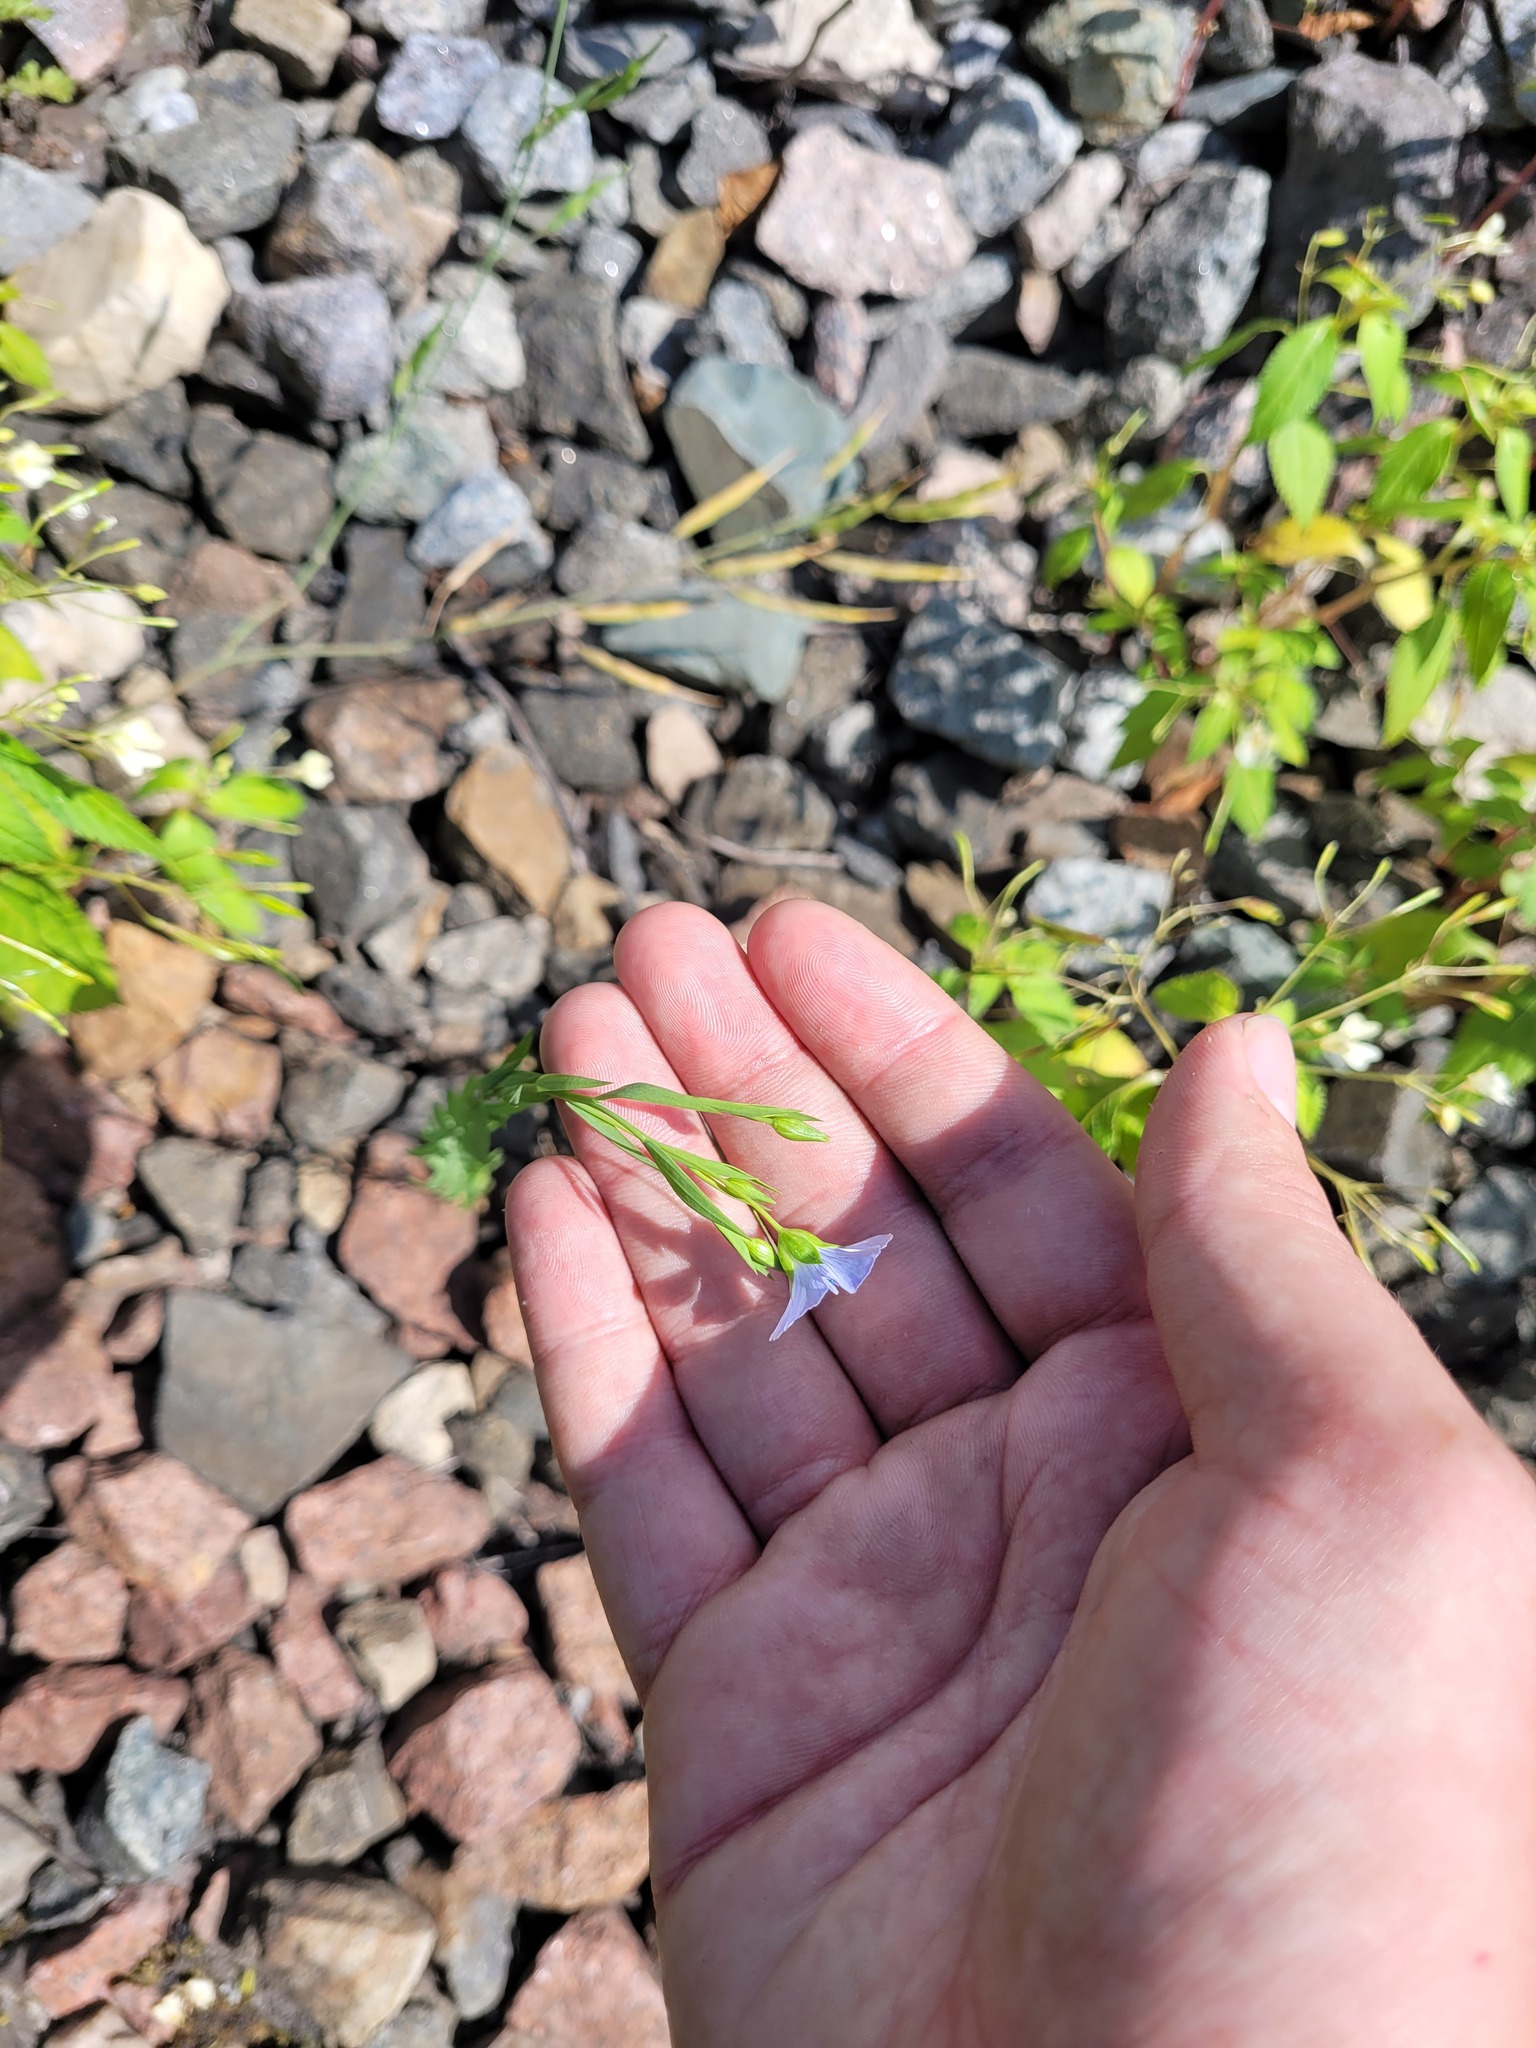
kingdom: Plantae
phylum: Tracheophyta
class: Magnoliopsida
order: Malpighiales
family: Linaceae
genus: Linum
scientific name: Linum usitatissimum
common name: Flax
